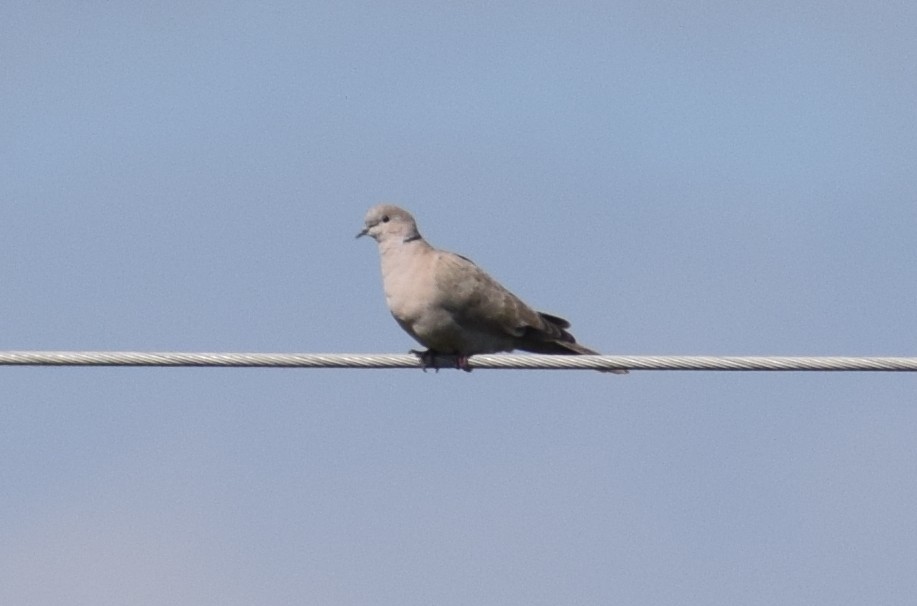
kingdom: Animalia
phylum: Chordata
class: Aves
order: Columbiformes
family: Columbidae
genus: Streptopelia
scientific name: Streptopelia decaocto
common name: Eurasian collared dove
